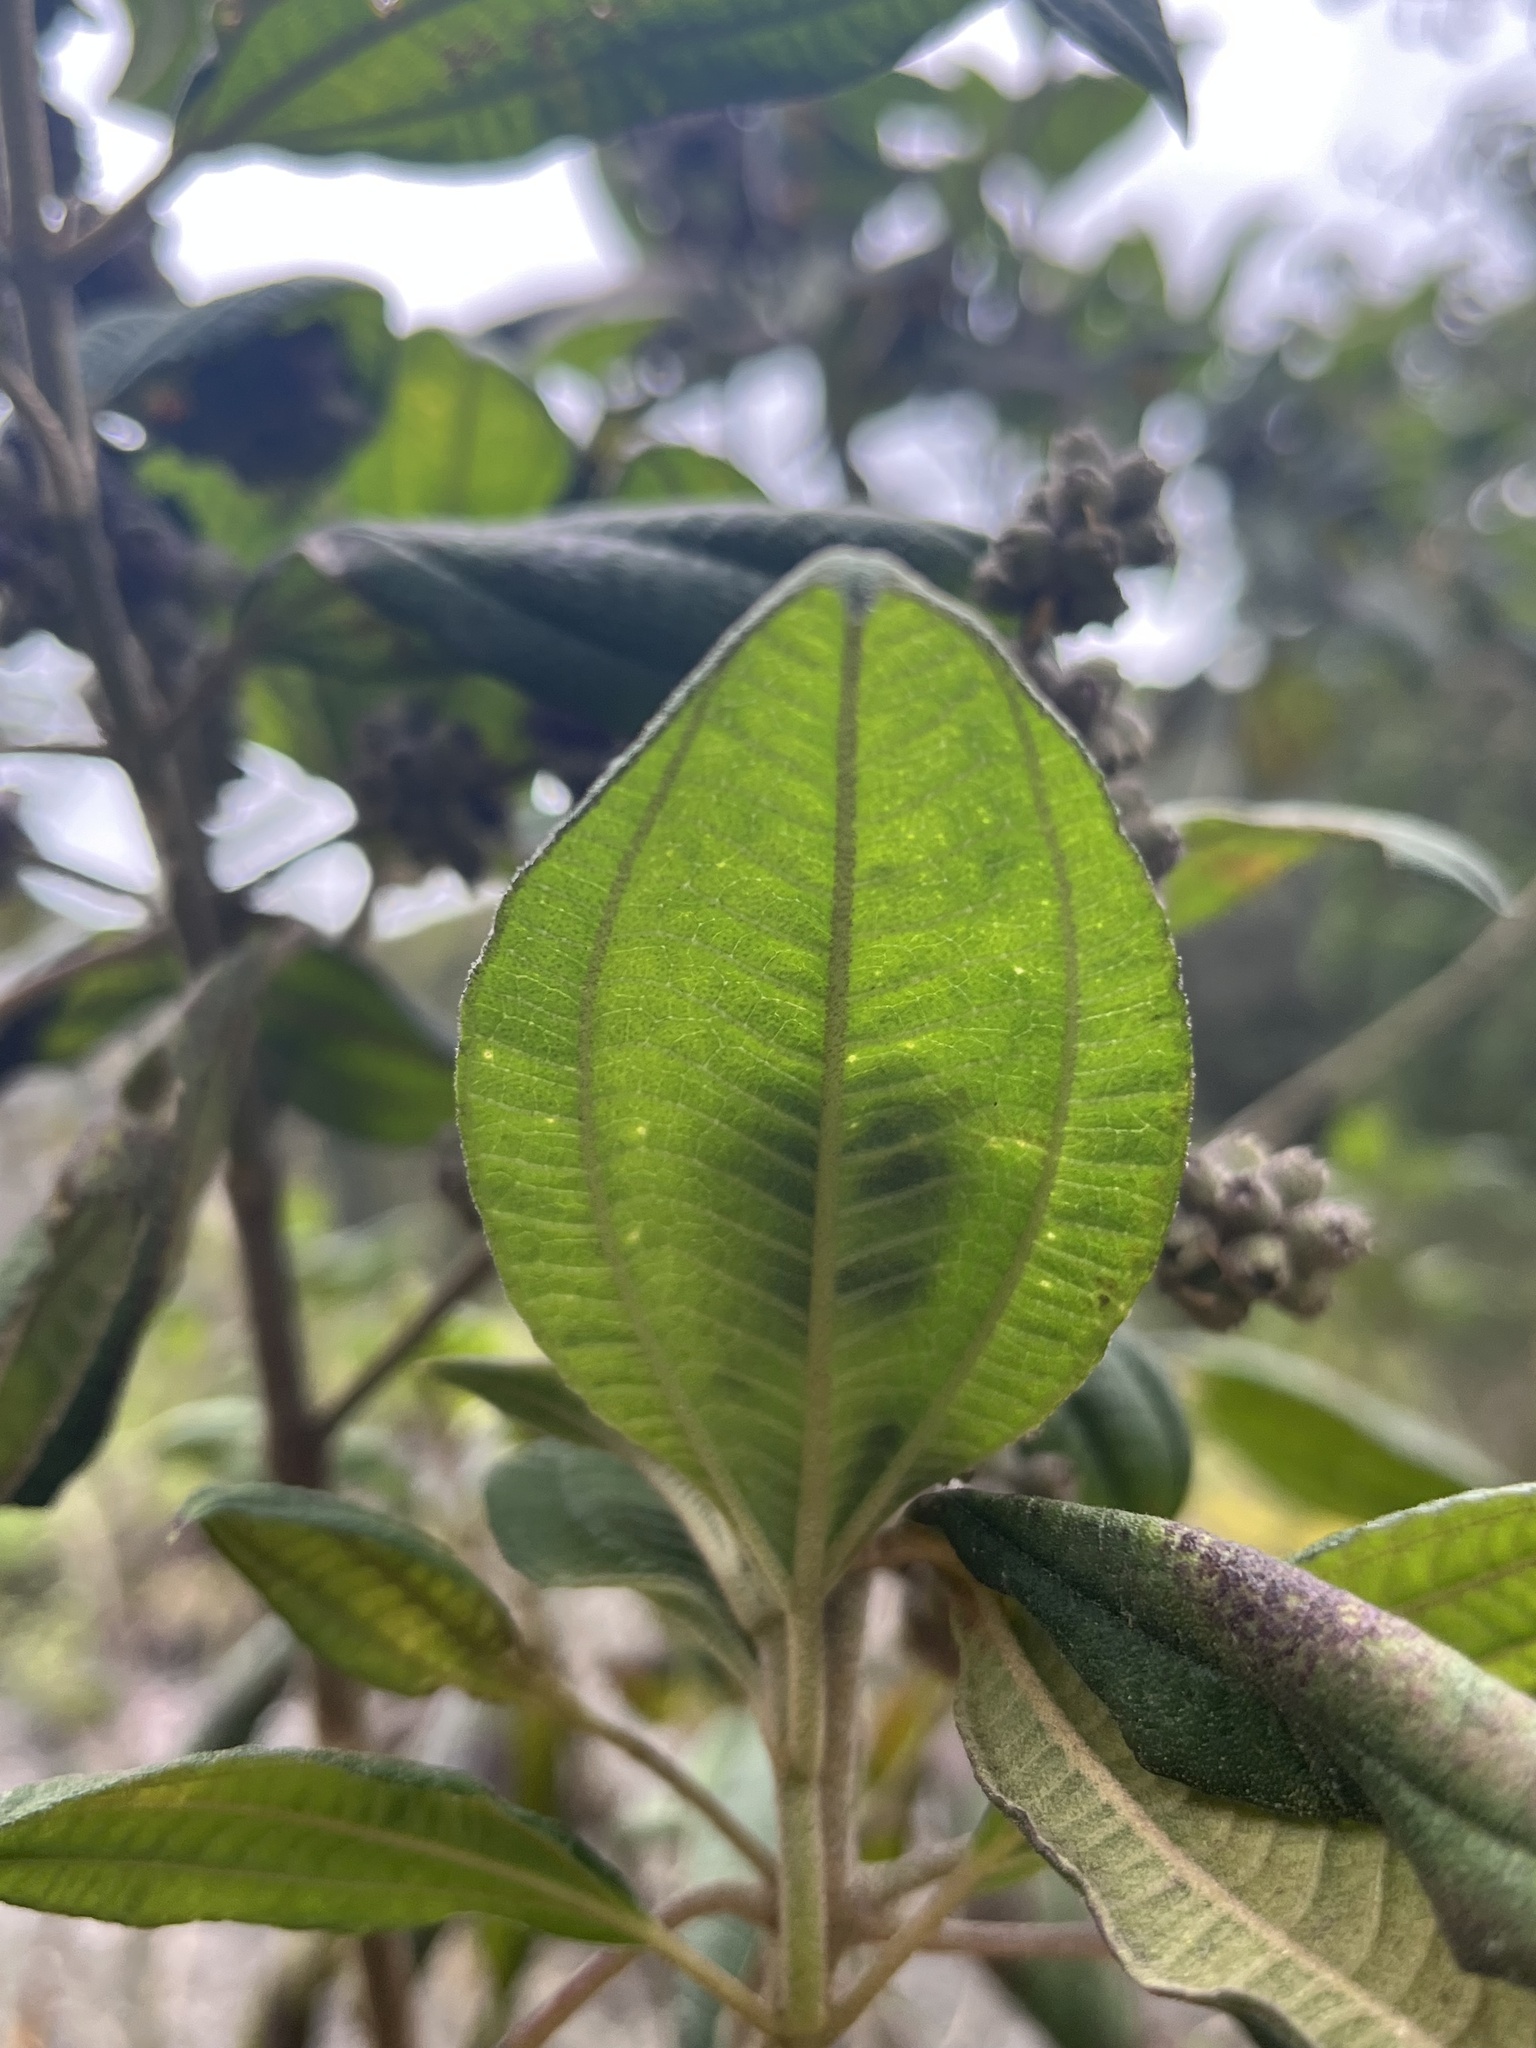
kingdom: Plantae
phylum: Tracheophyta
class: Magnoliopsida
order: Myrtales
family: Melastomataceae
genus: Miconia
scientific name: Miconia cataractae
